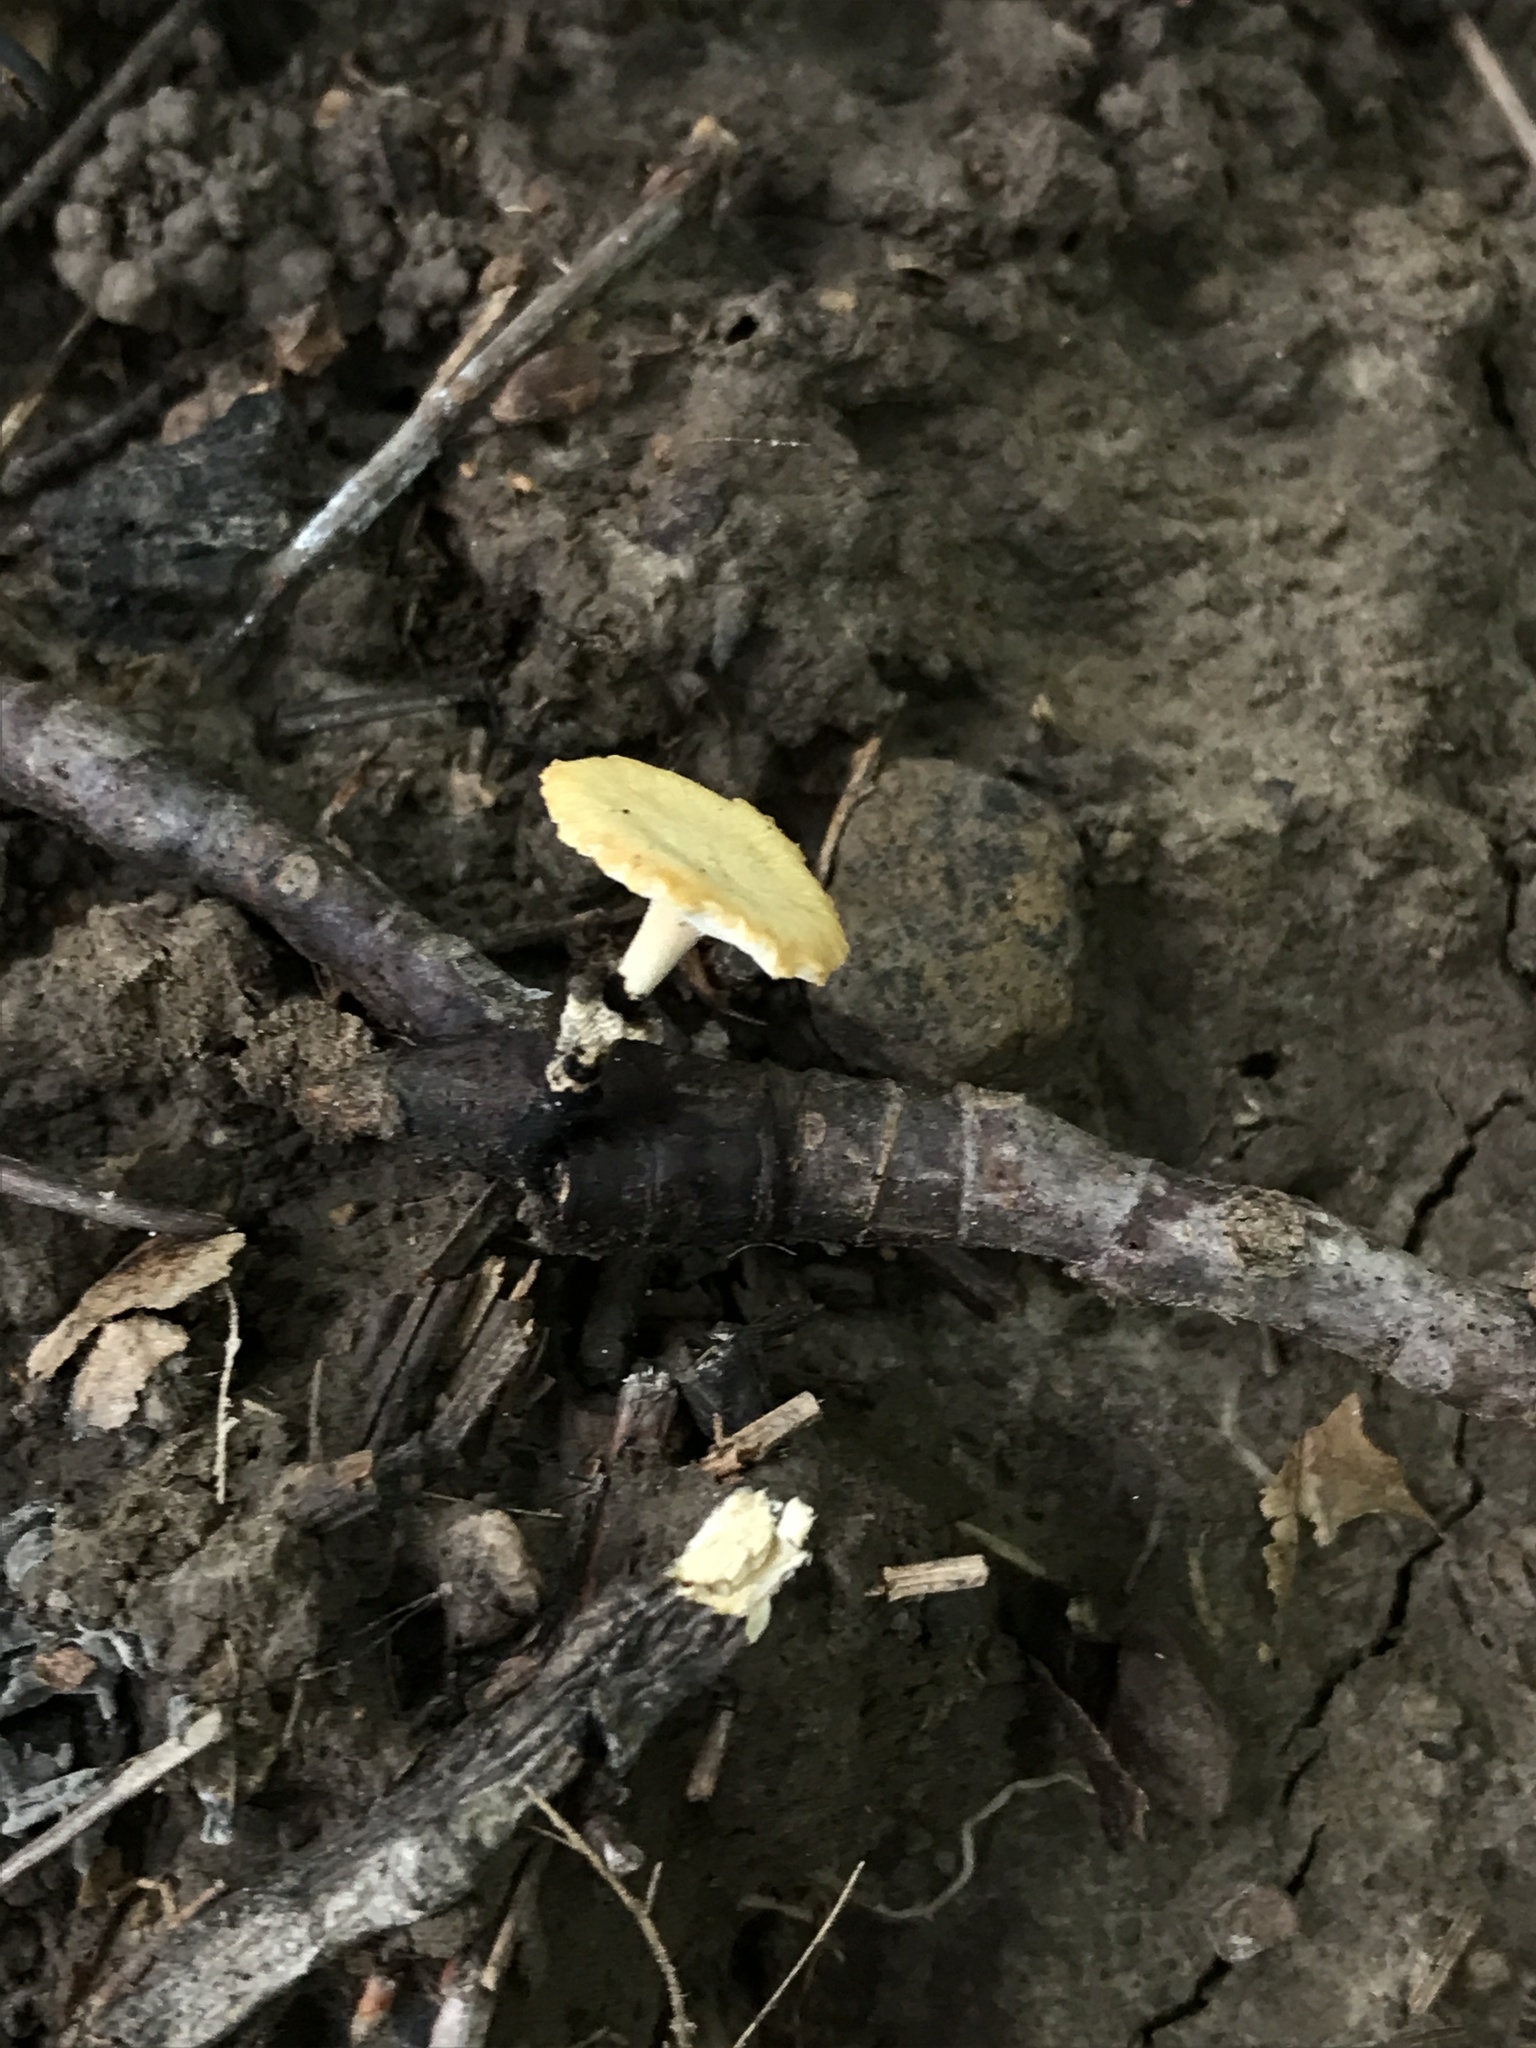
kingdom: Fungi
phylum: Basidiomycota
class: Agaricomycetes
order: Polyporales
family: Polyporaceae
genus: Cerioporus
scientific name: Cerioporus varius
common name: Elegant polypore
